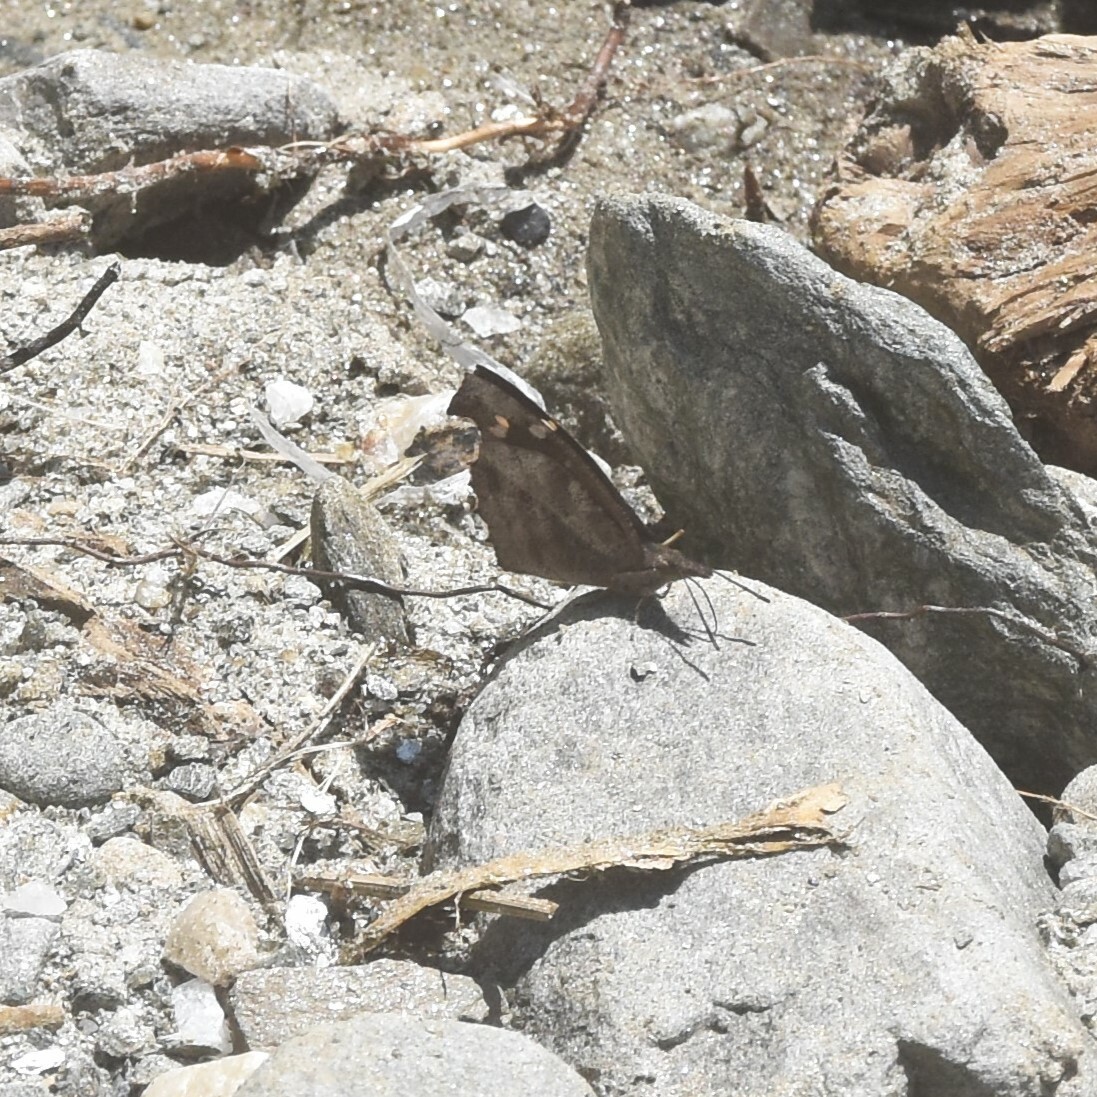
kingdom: Animalia
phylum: Arthropoda
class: Insecta
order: Lepidoptera
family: Nymphalidae
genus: Libythea
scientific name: Libythea lepita
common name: Common beak
